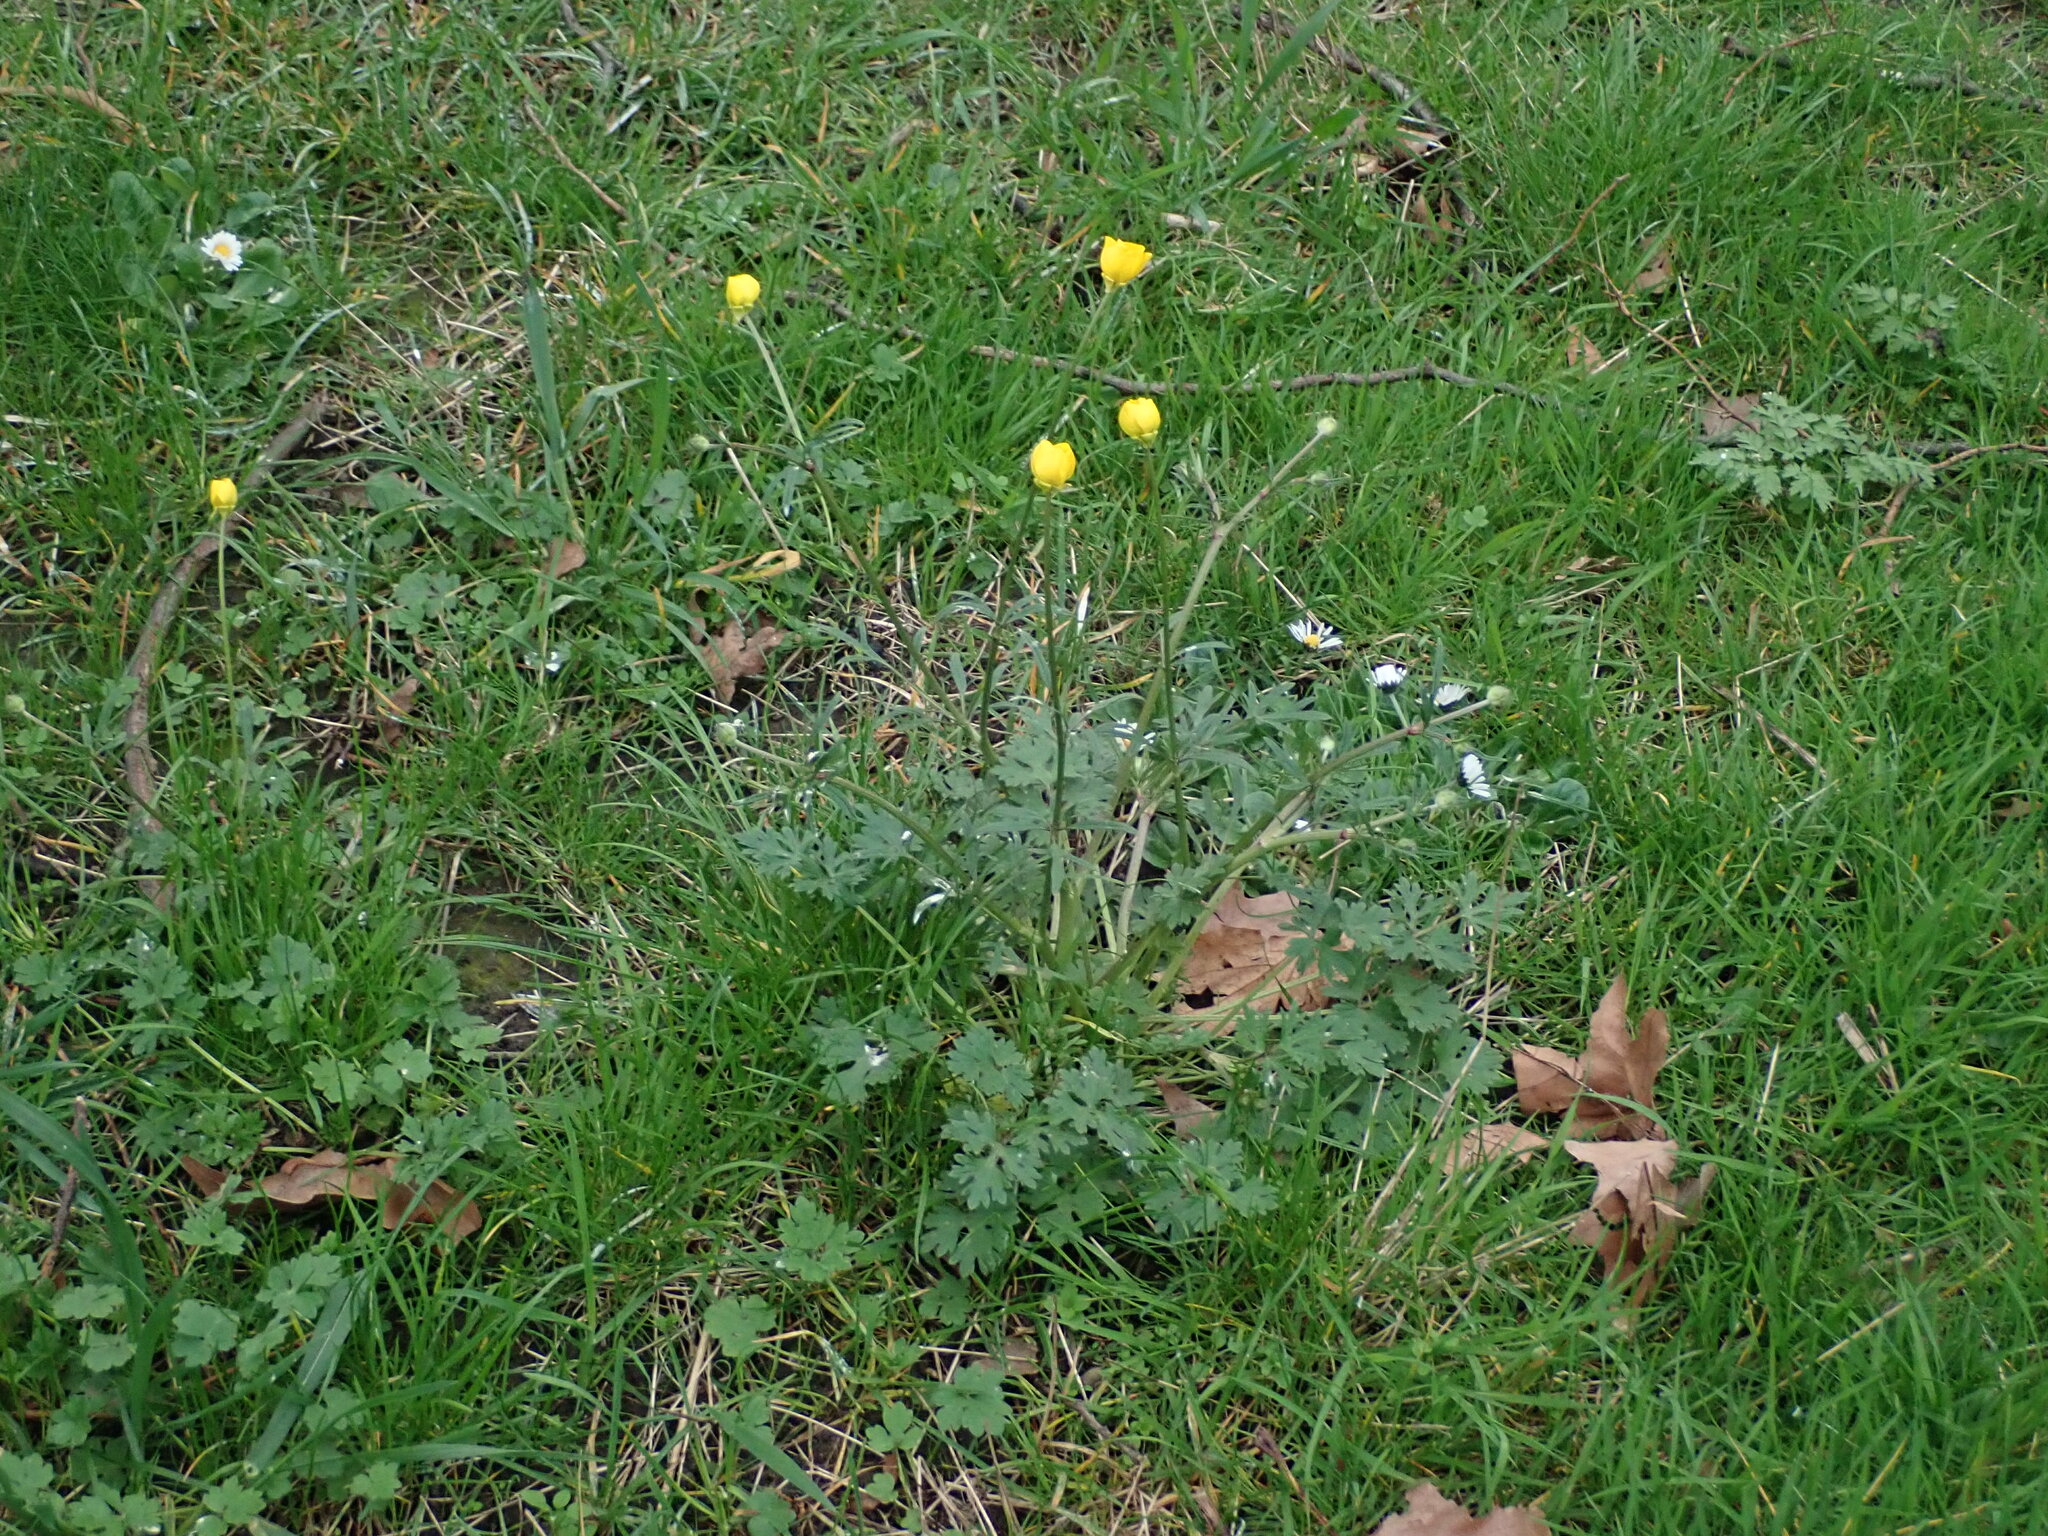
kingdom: Plantae
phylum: Tracheophyta
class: Magnoliopsida
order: Ranunculales
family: Ranunculaceae
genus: Ranunculus
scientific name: Ranunculus bulbosus
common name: Bulbous buttercup
